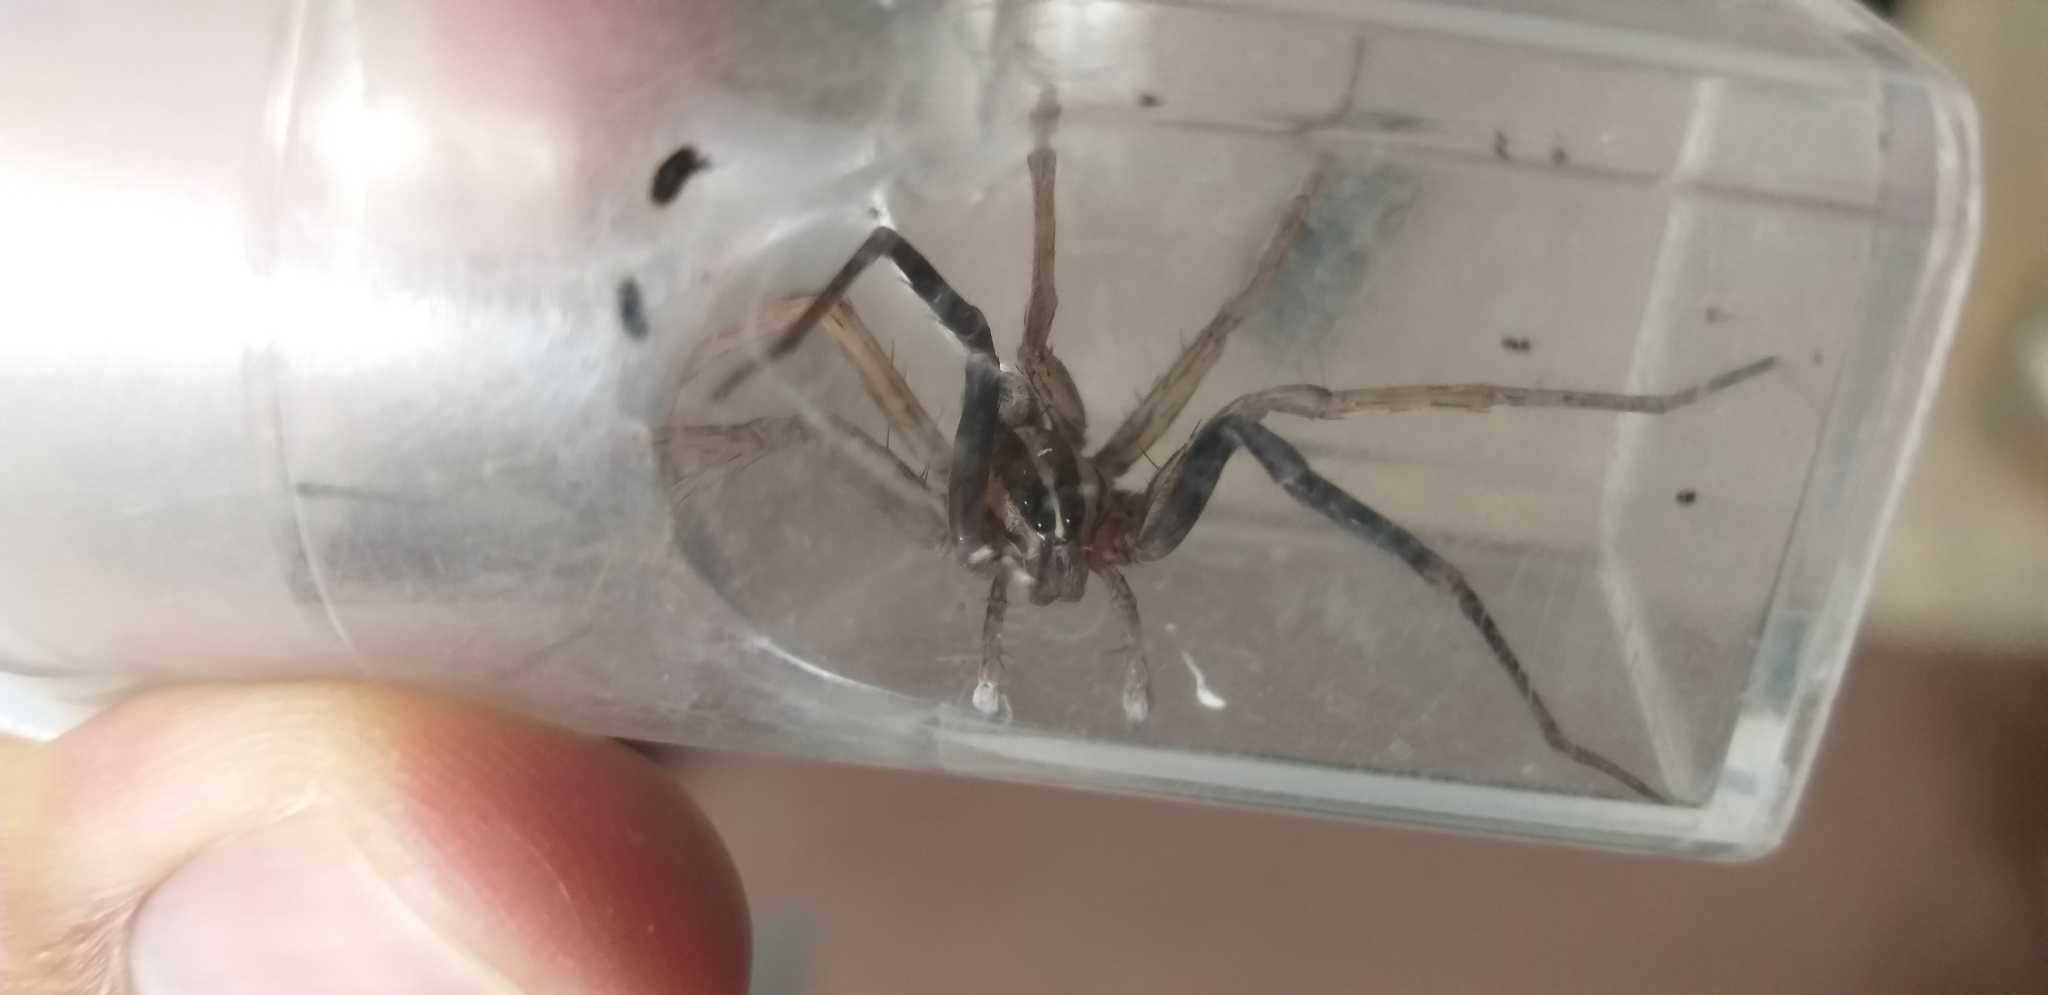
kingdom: Animalia
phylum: Arthropoda
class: Arachnida
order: Araneae
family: Lycosidae
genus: Rabidosa
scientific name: Rabidosa rabida
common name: Rabid wolf spider
